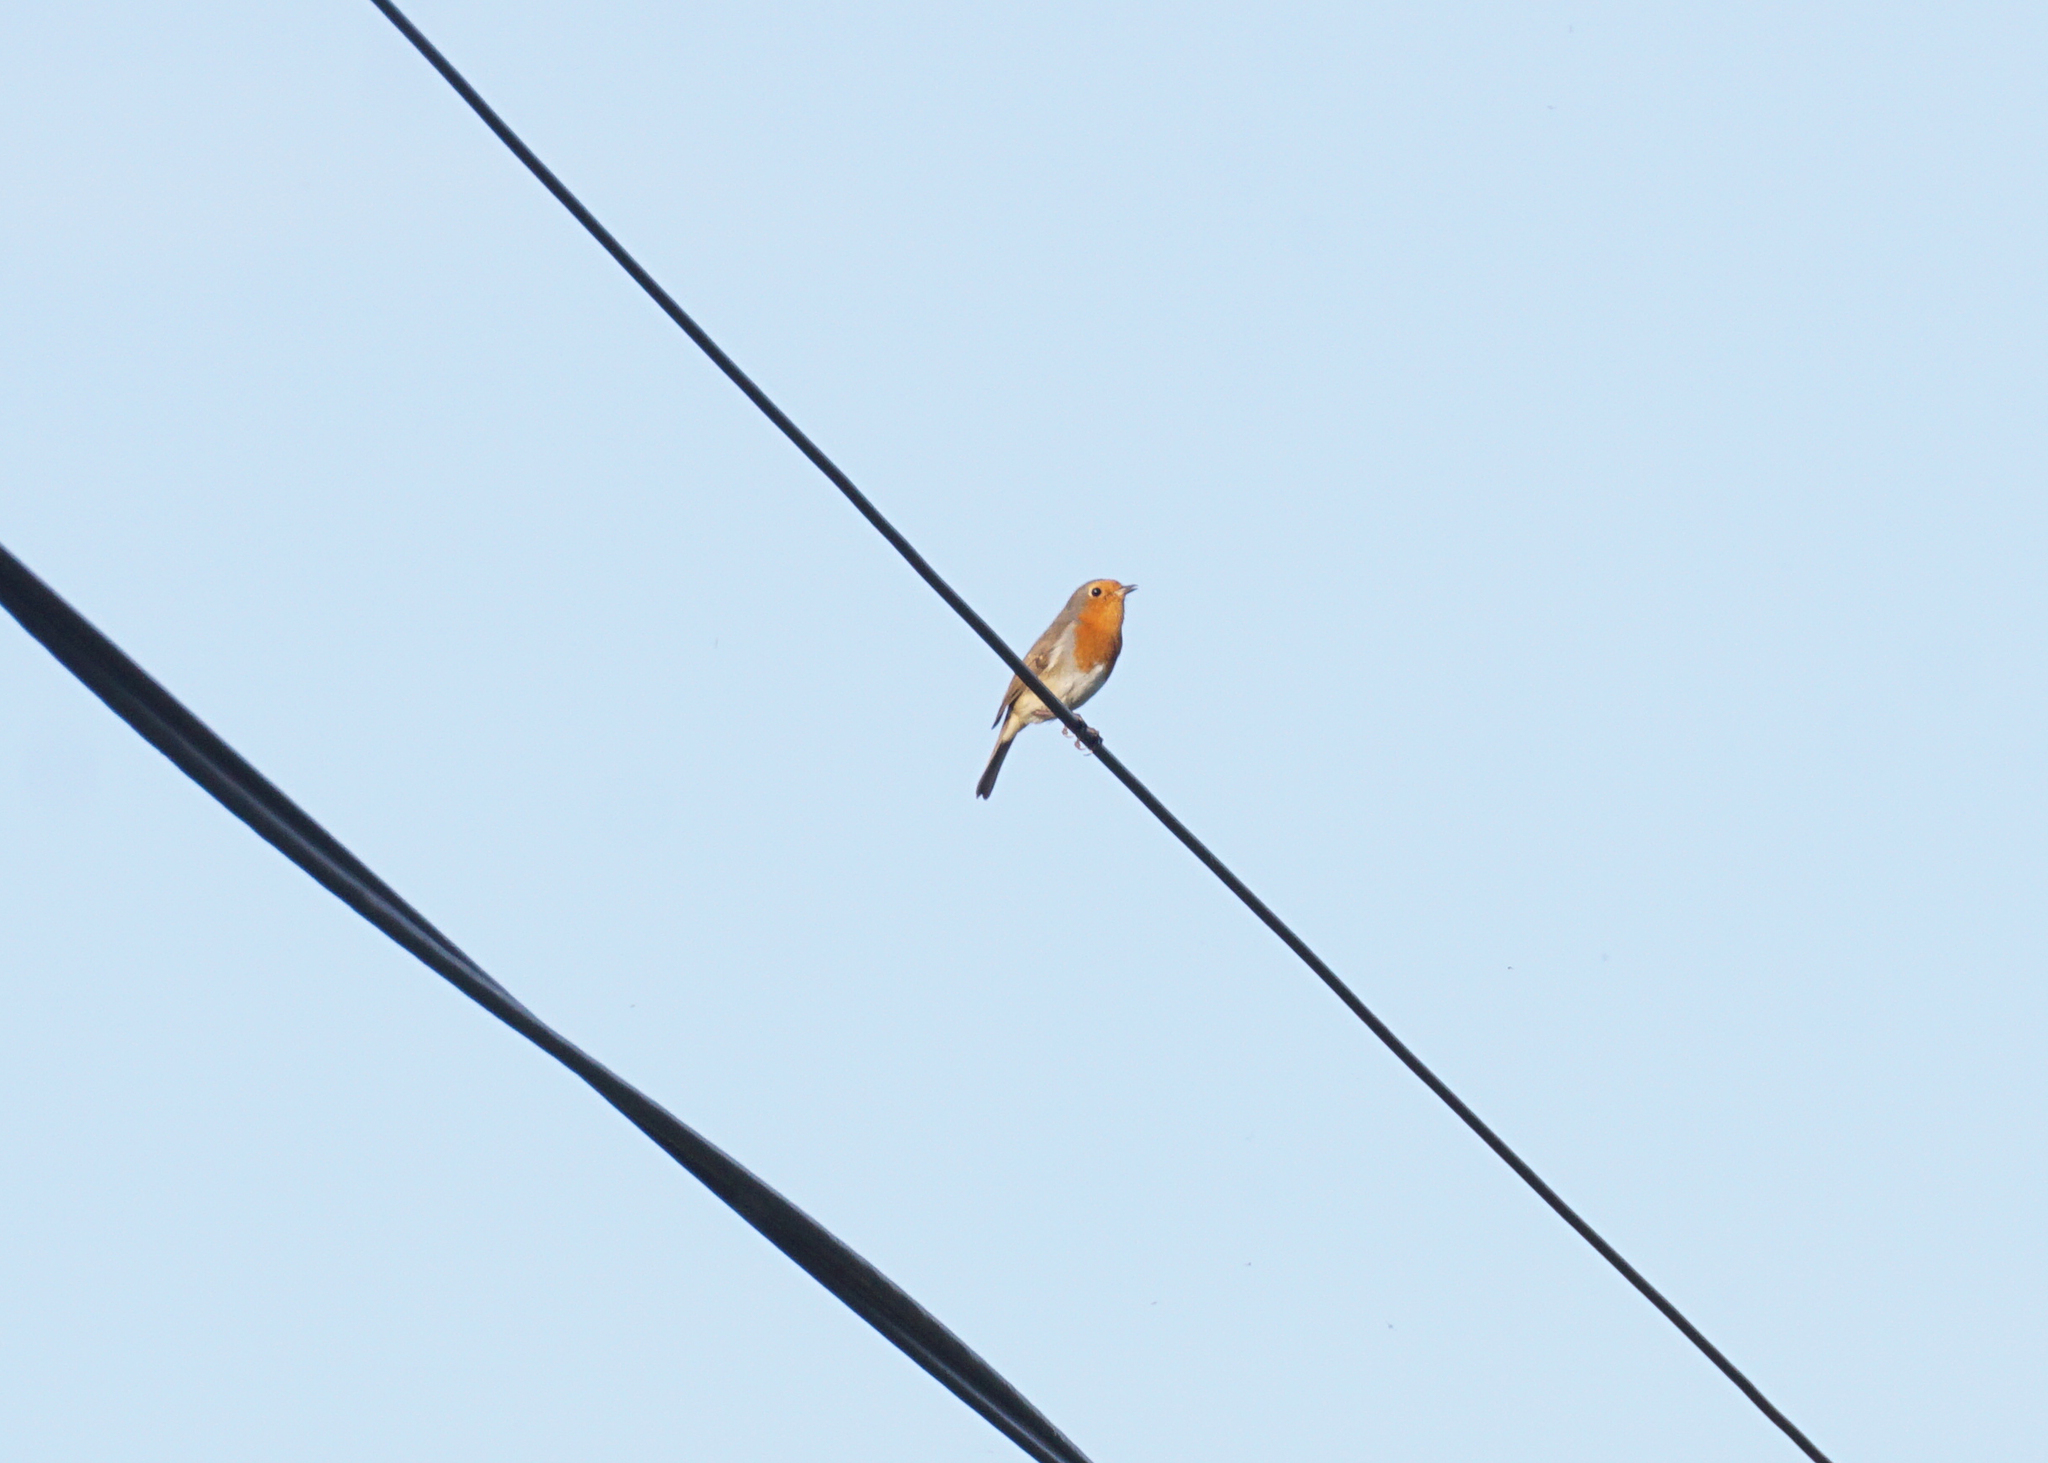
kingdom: Animalia
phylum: Chordata
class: Aves
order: Passeriformes
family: Muscicapidae
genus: Erithacus
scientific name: Erithacus rubecula
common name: European robin
